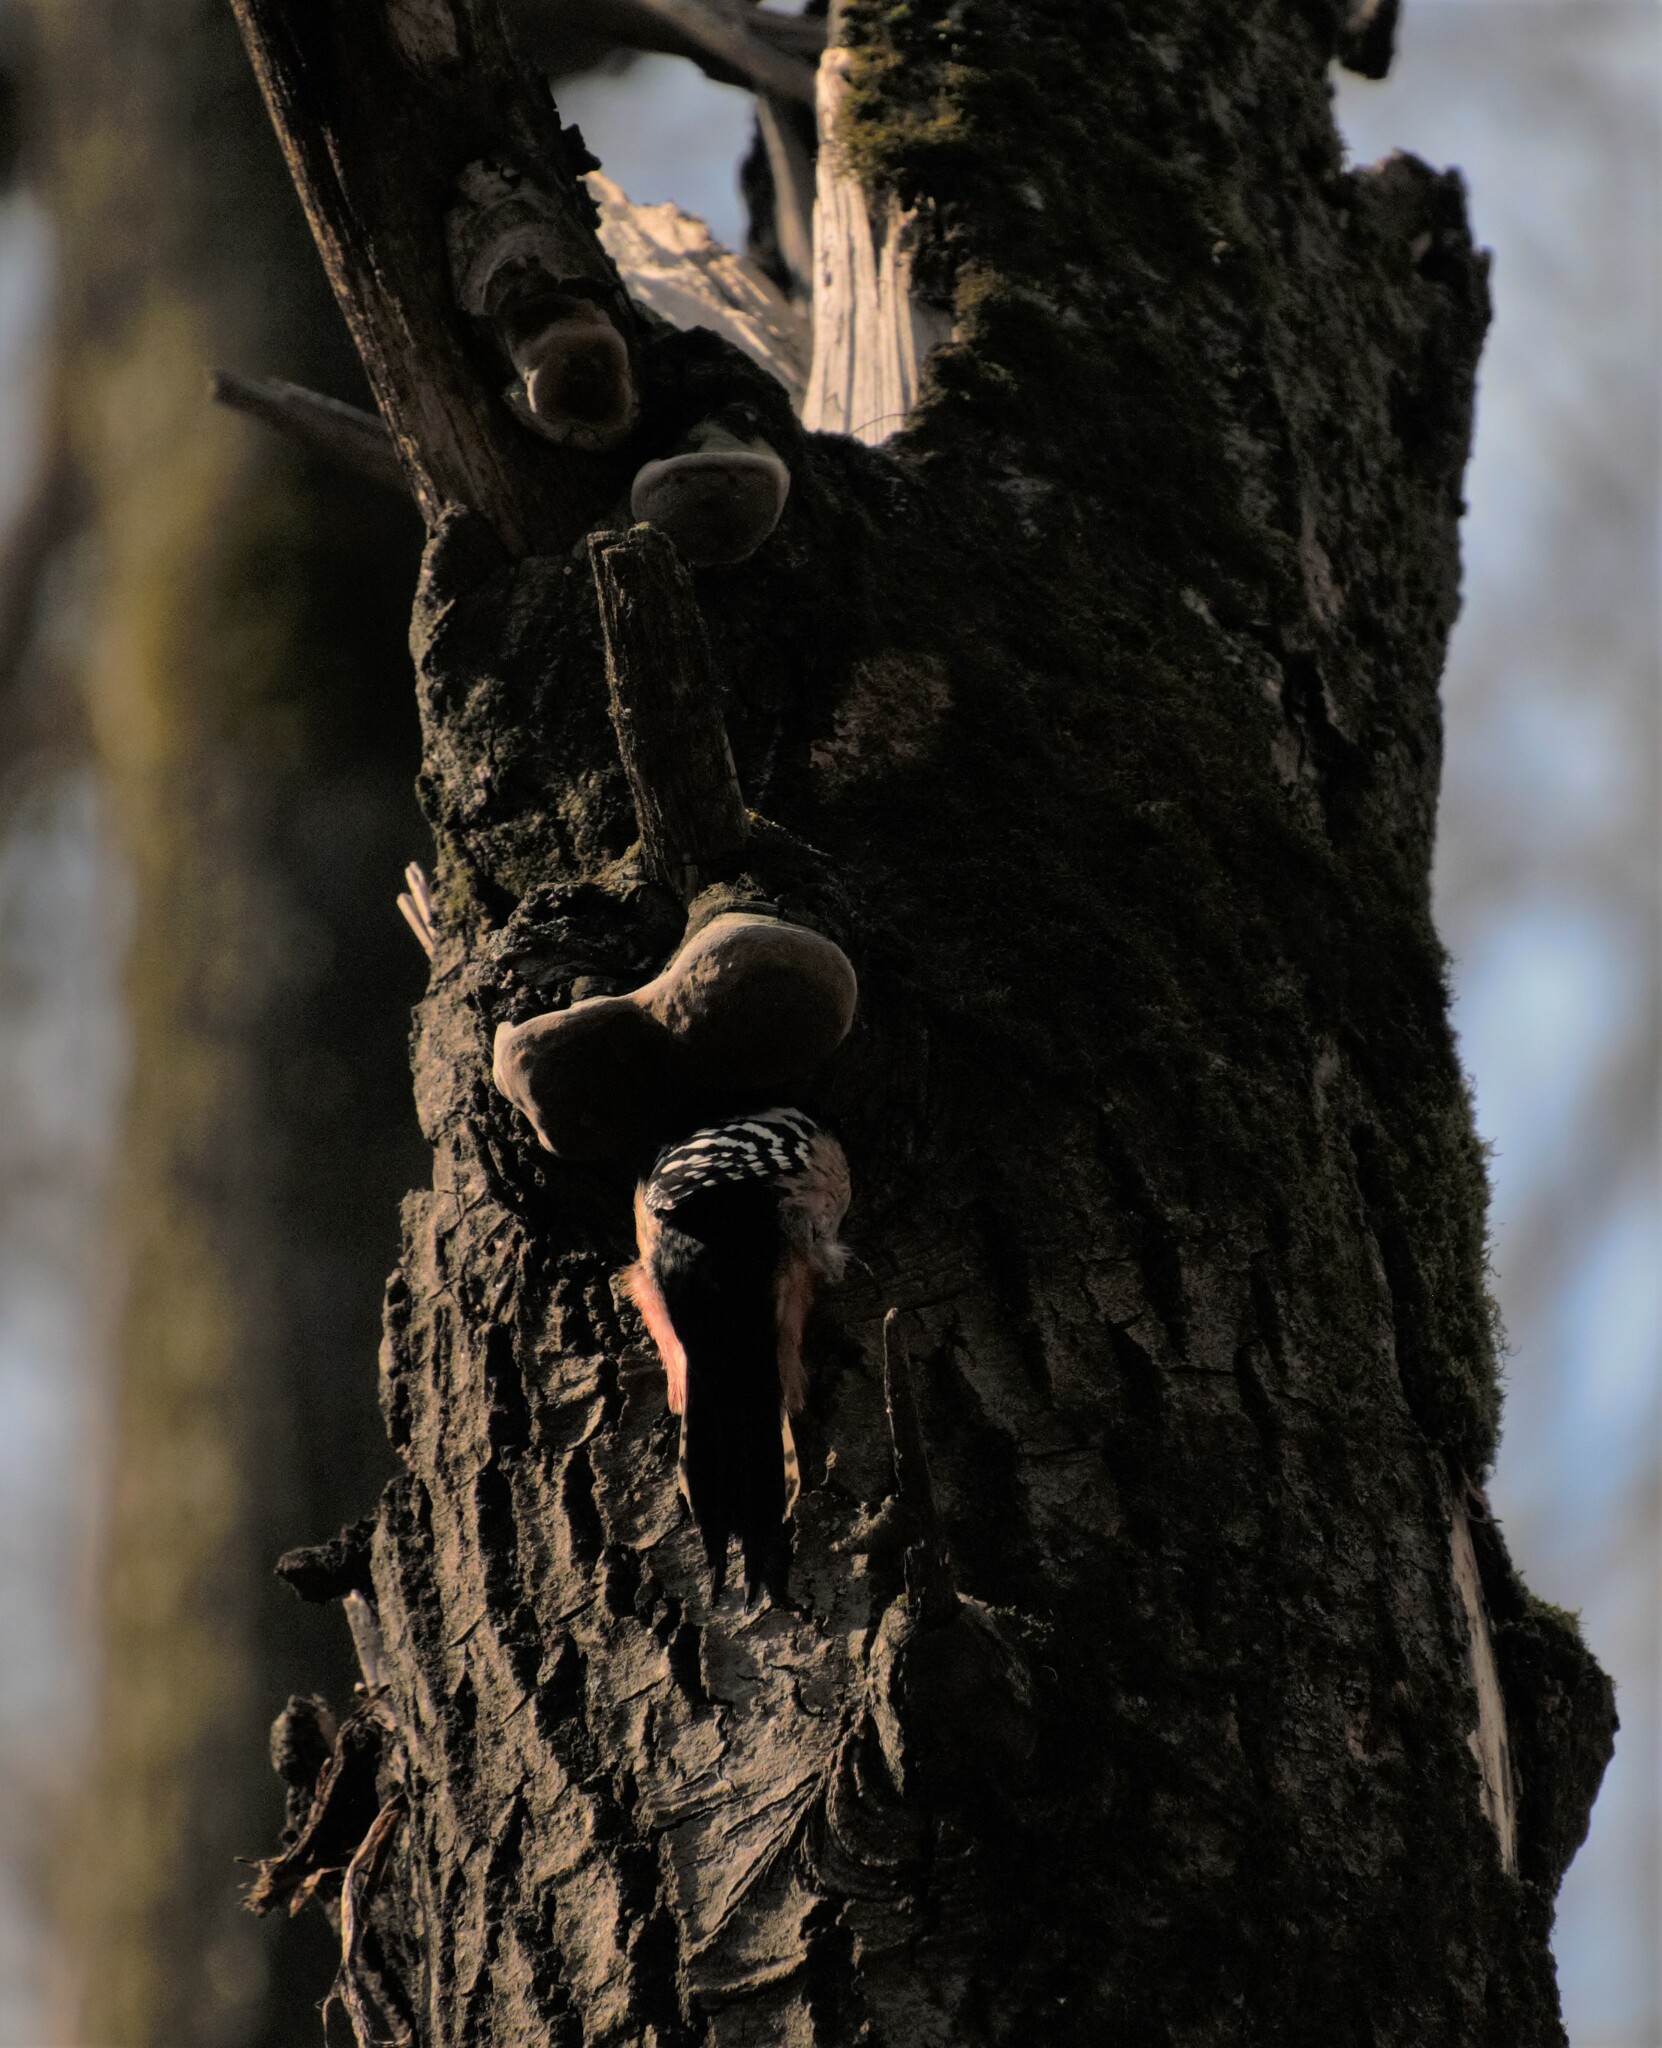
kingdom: Animalia
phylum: Chordata
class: Aves
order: Piciformes
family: Picidae
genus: Dendrocoptes
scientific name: Dendrocoptes medius
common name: Middle spotted woodpecker
